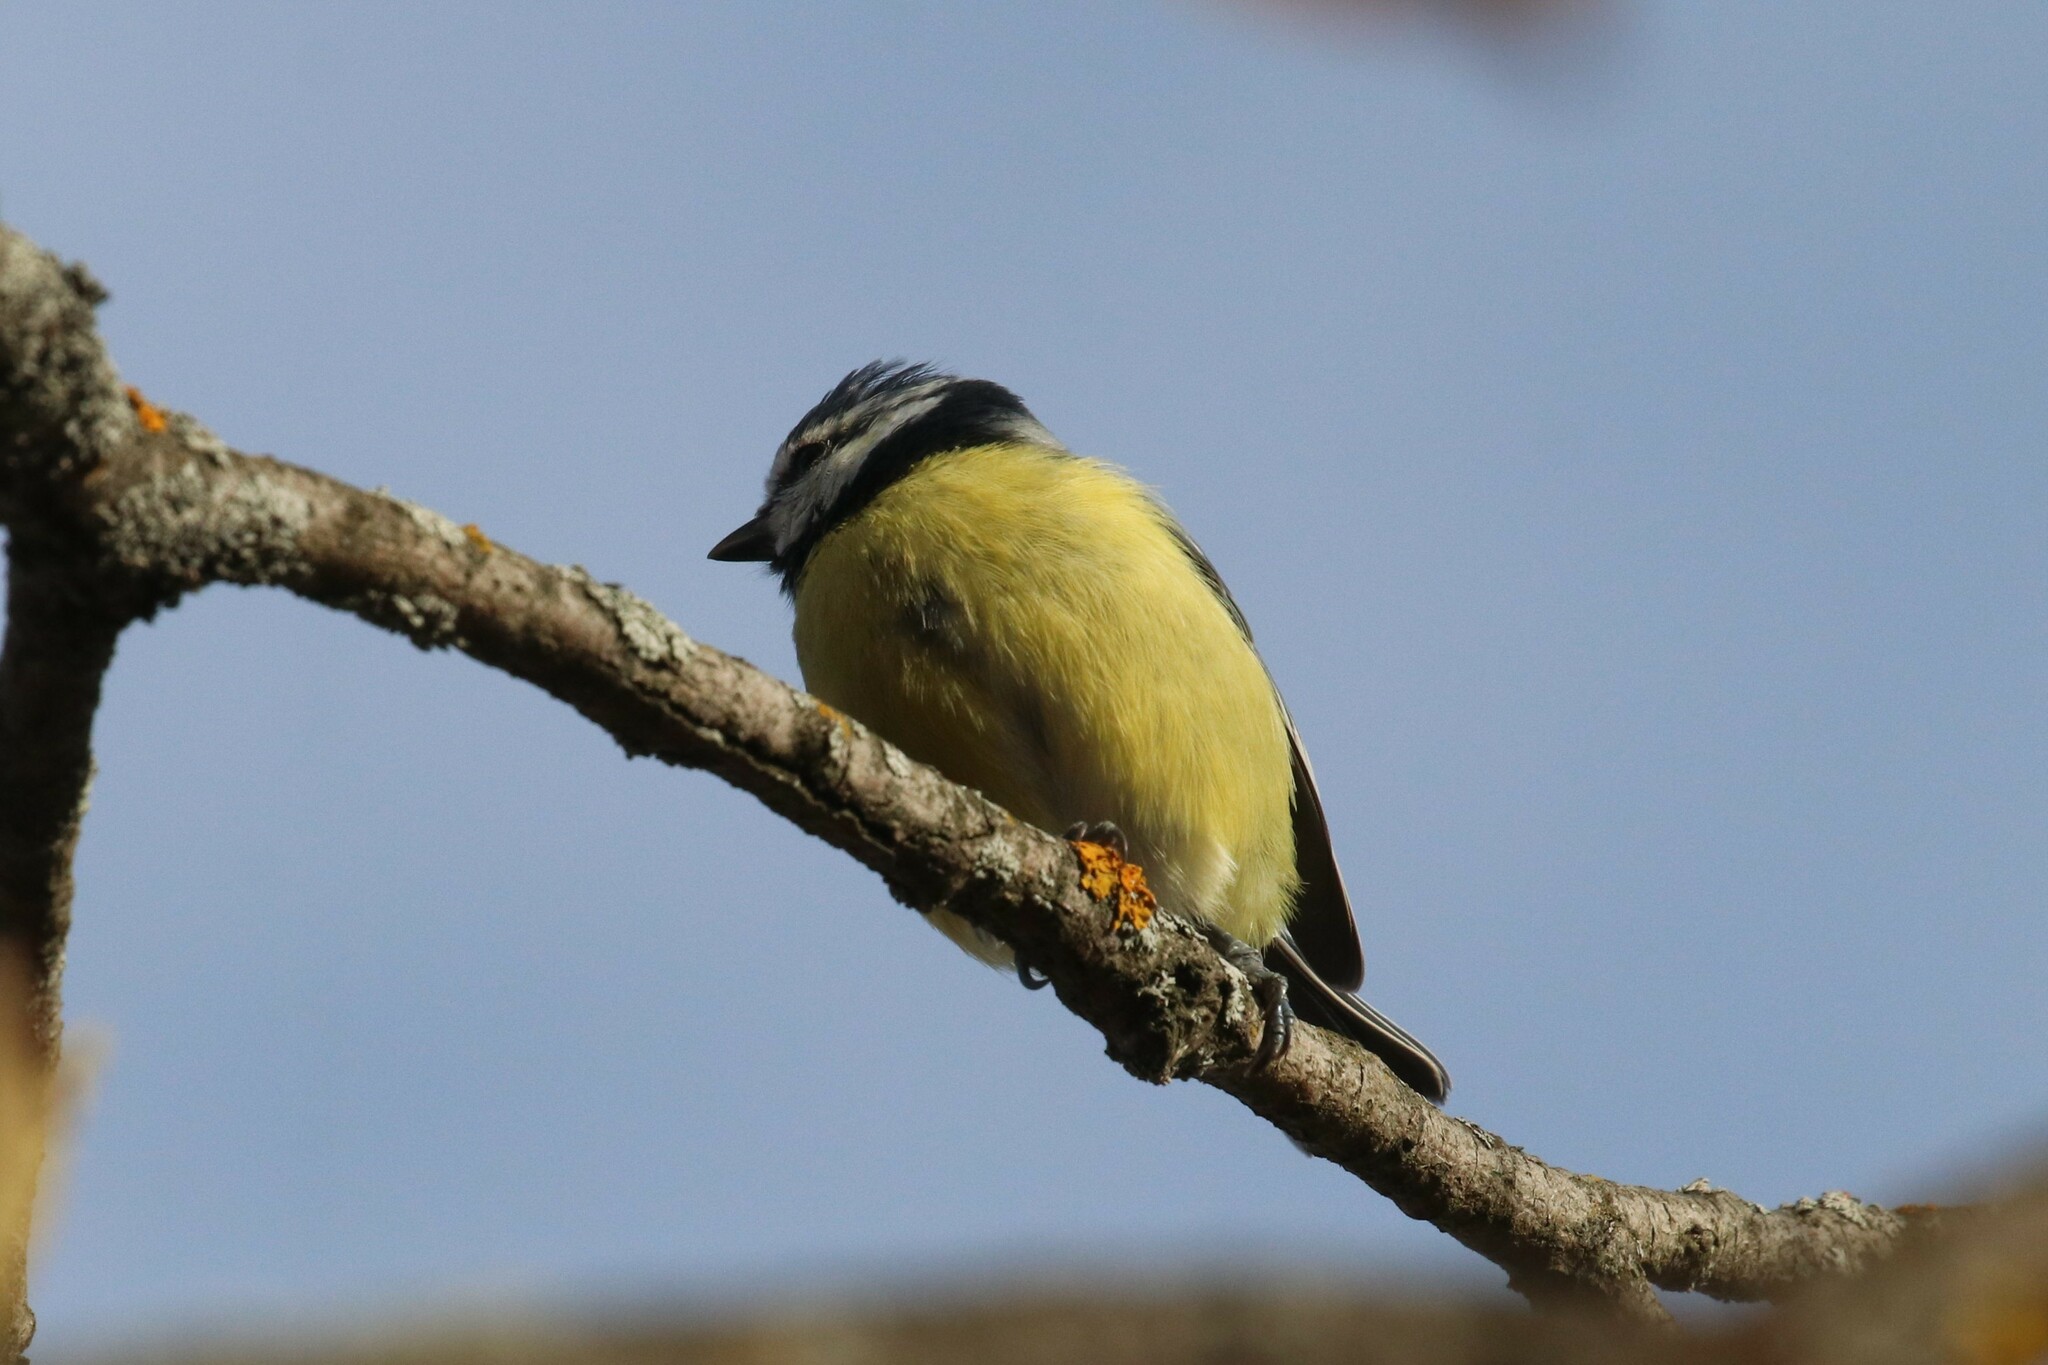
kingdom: Animalia
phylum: Chordata
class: Aves
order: Passeriformes
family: Paridae
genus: Cyanistes
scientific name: Cyanistes caeruleus
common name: Eurasian blue tit
